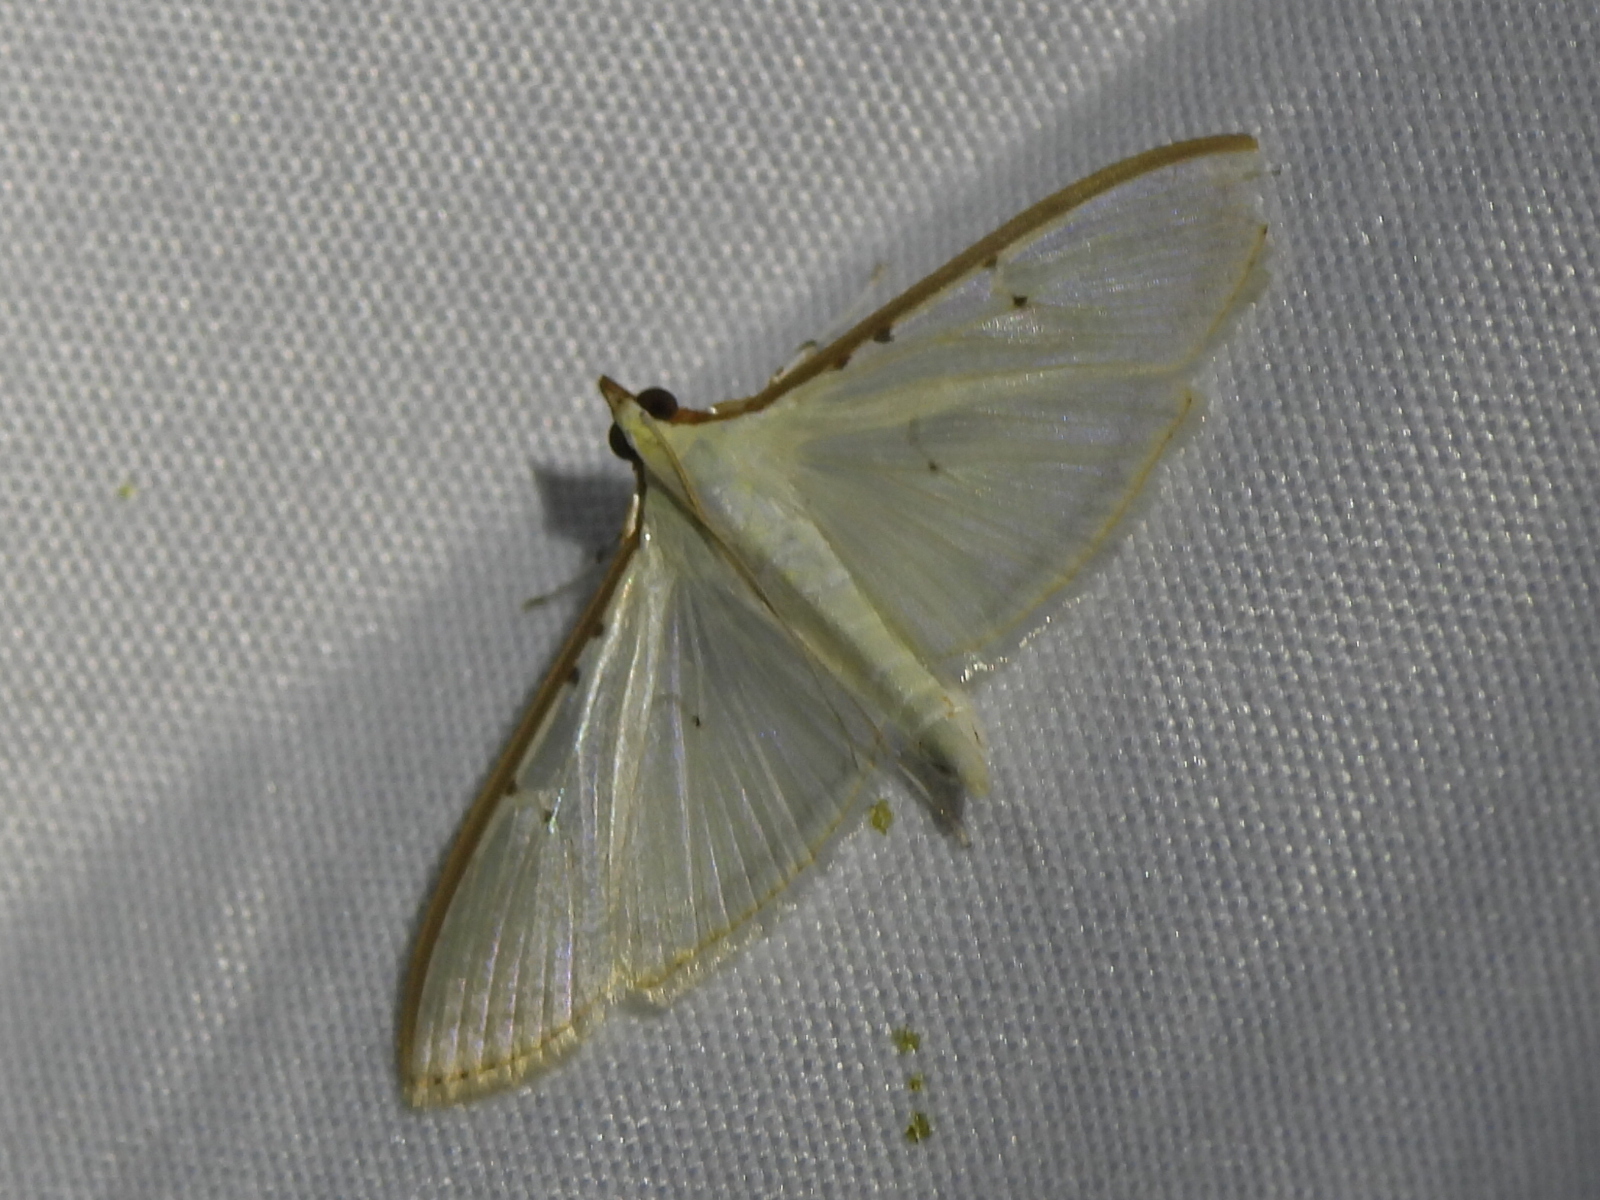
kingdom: Animalia
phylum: Arthropoda
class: Insecta
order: Lepidoptera
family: Crambidae
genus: Palpita
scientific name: Palpita quadristigmalis
